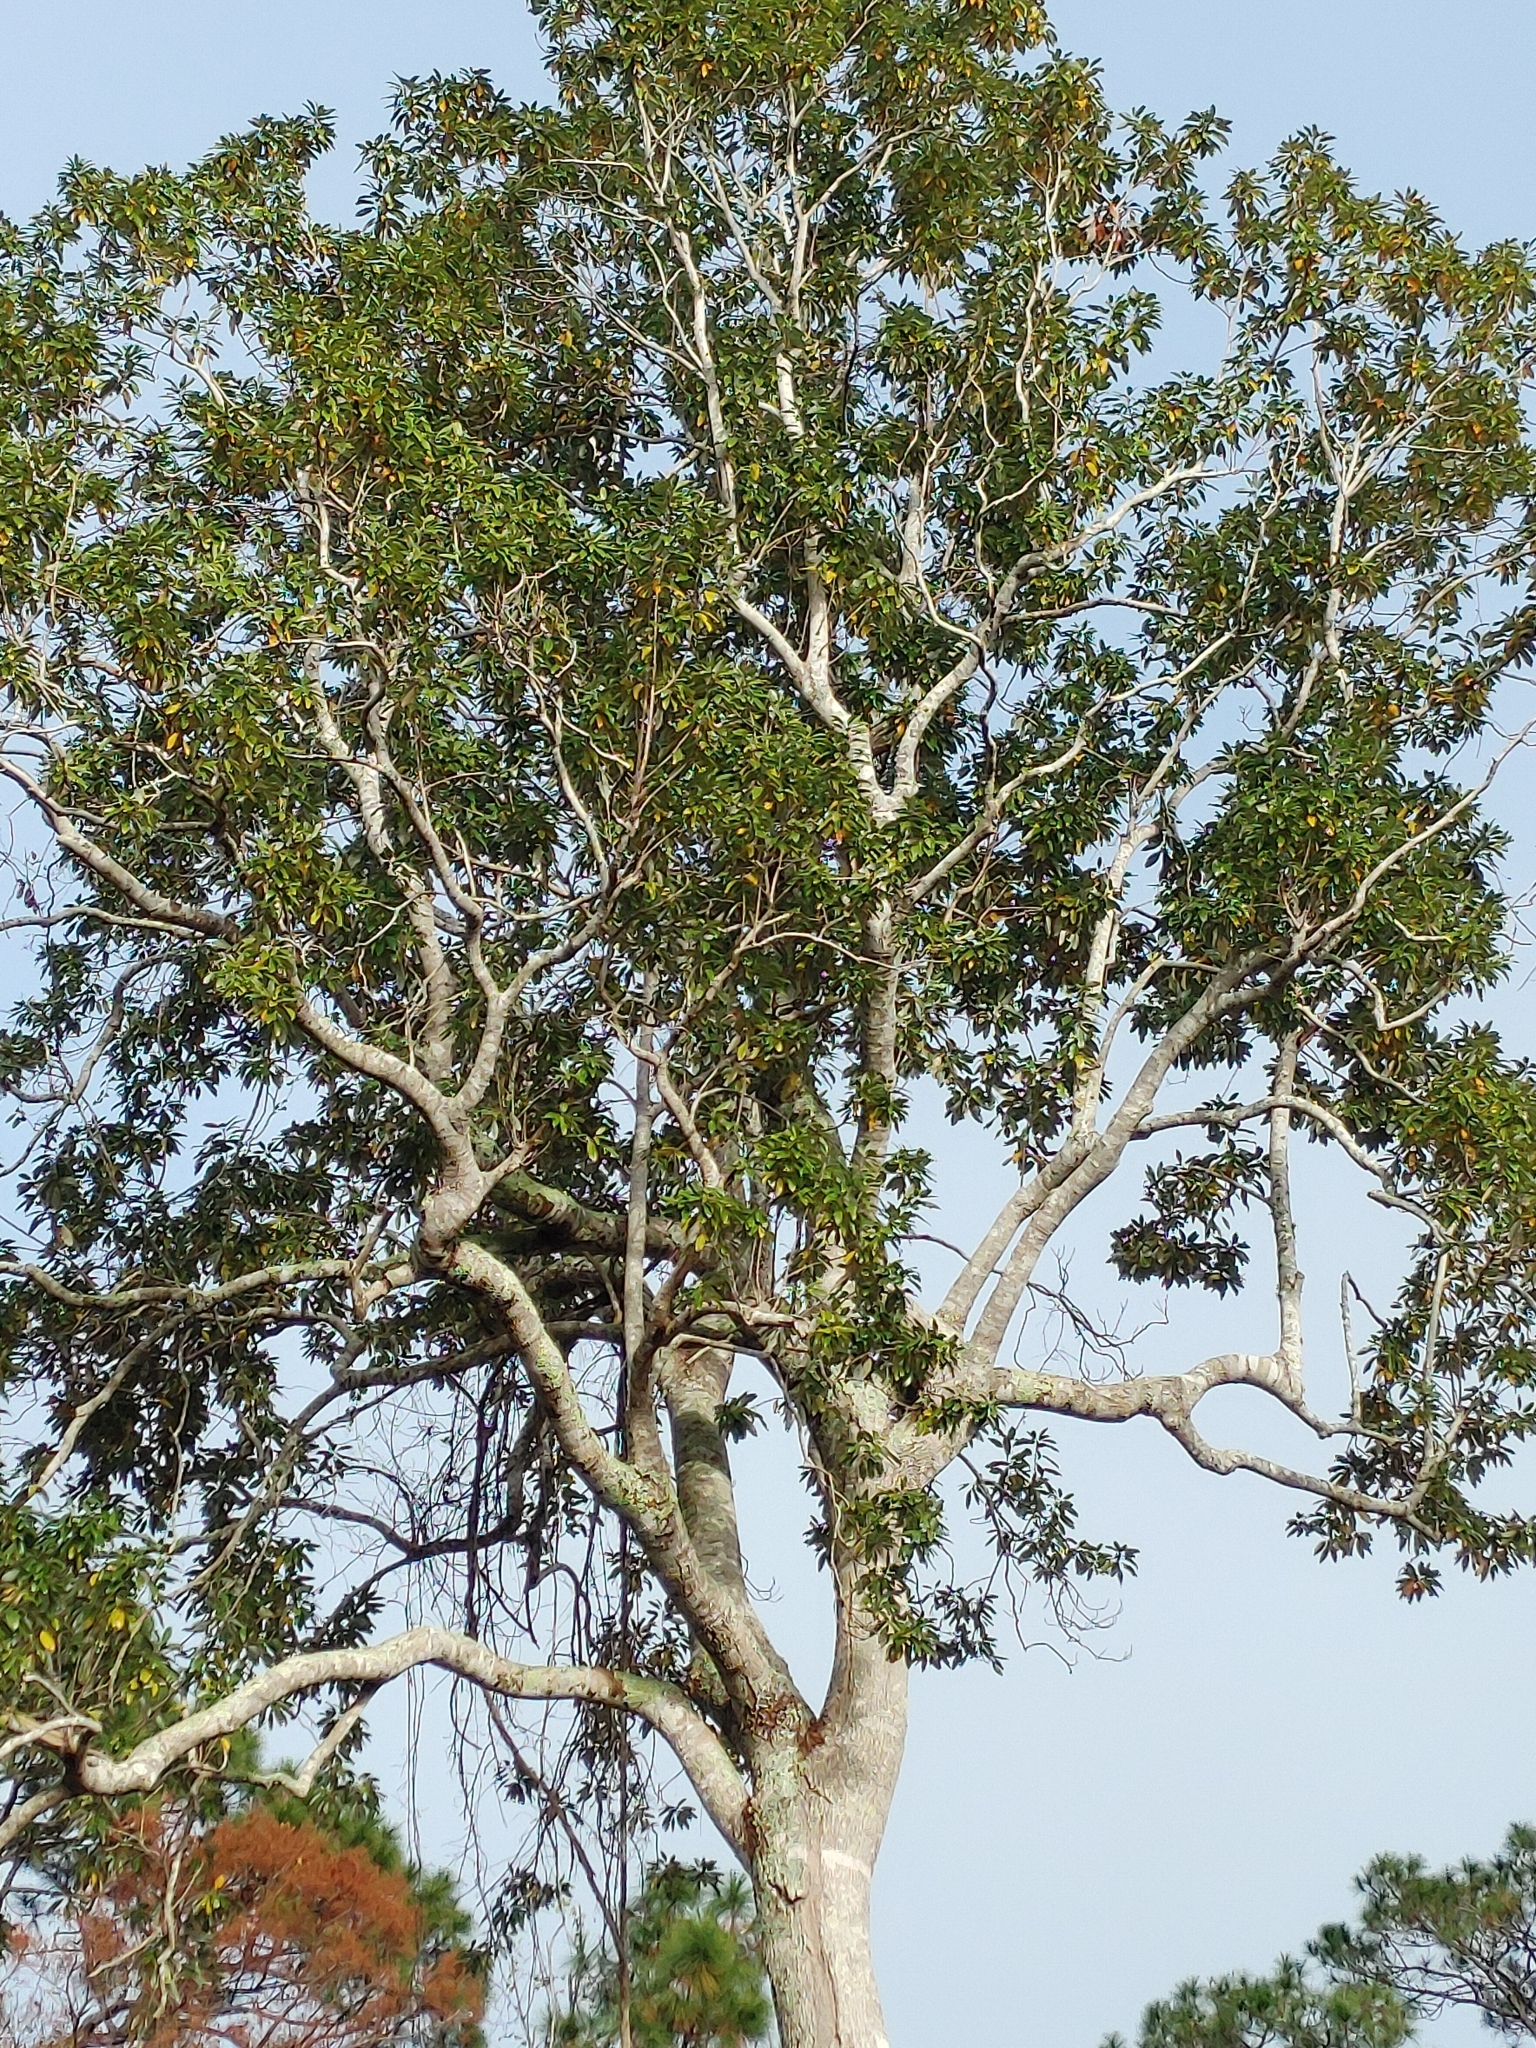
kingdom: Plantae
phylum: Tracheophyta
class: Magnoliopsida
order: Magnoliales
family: Magnoliaceae
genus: Magnolia
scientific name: Magnolia virginiana
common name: Swamp bay
